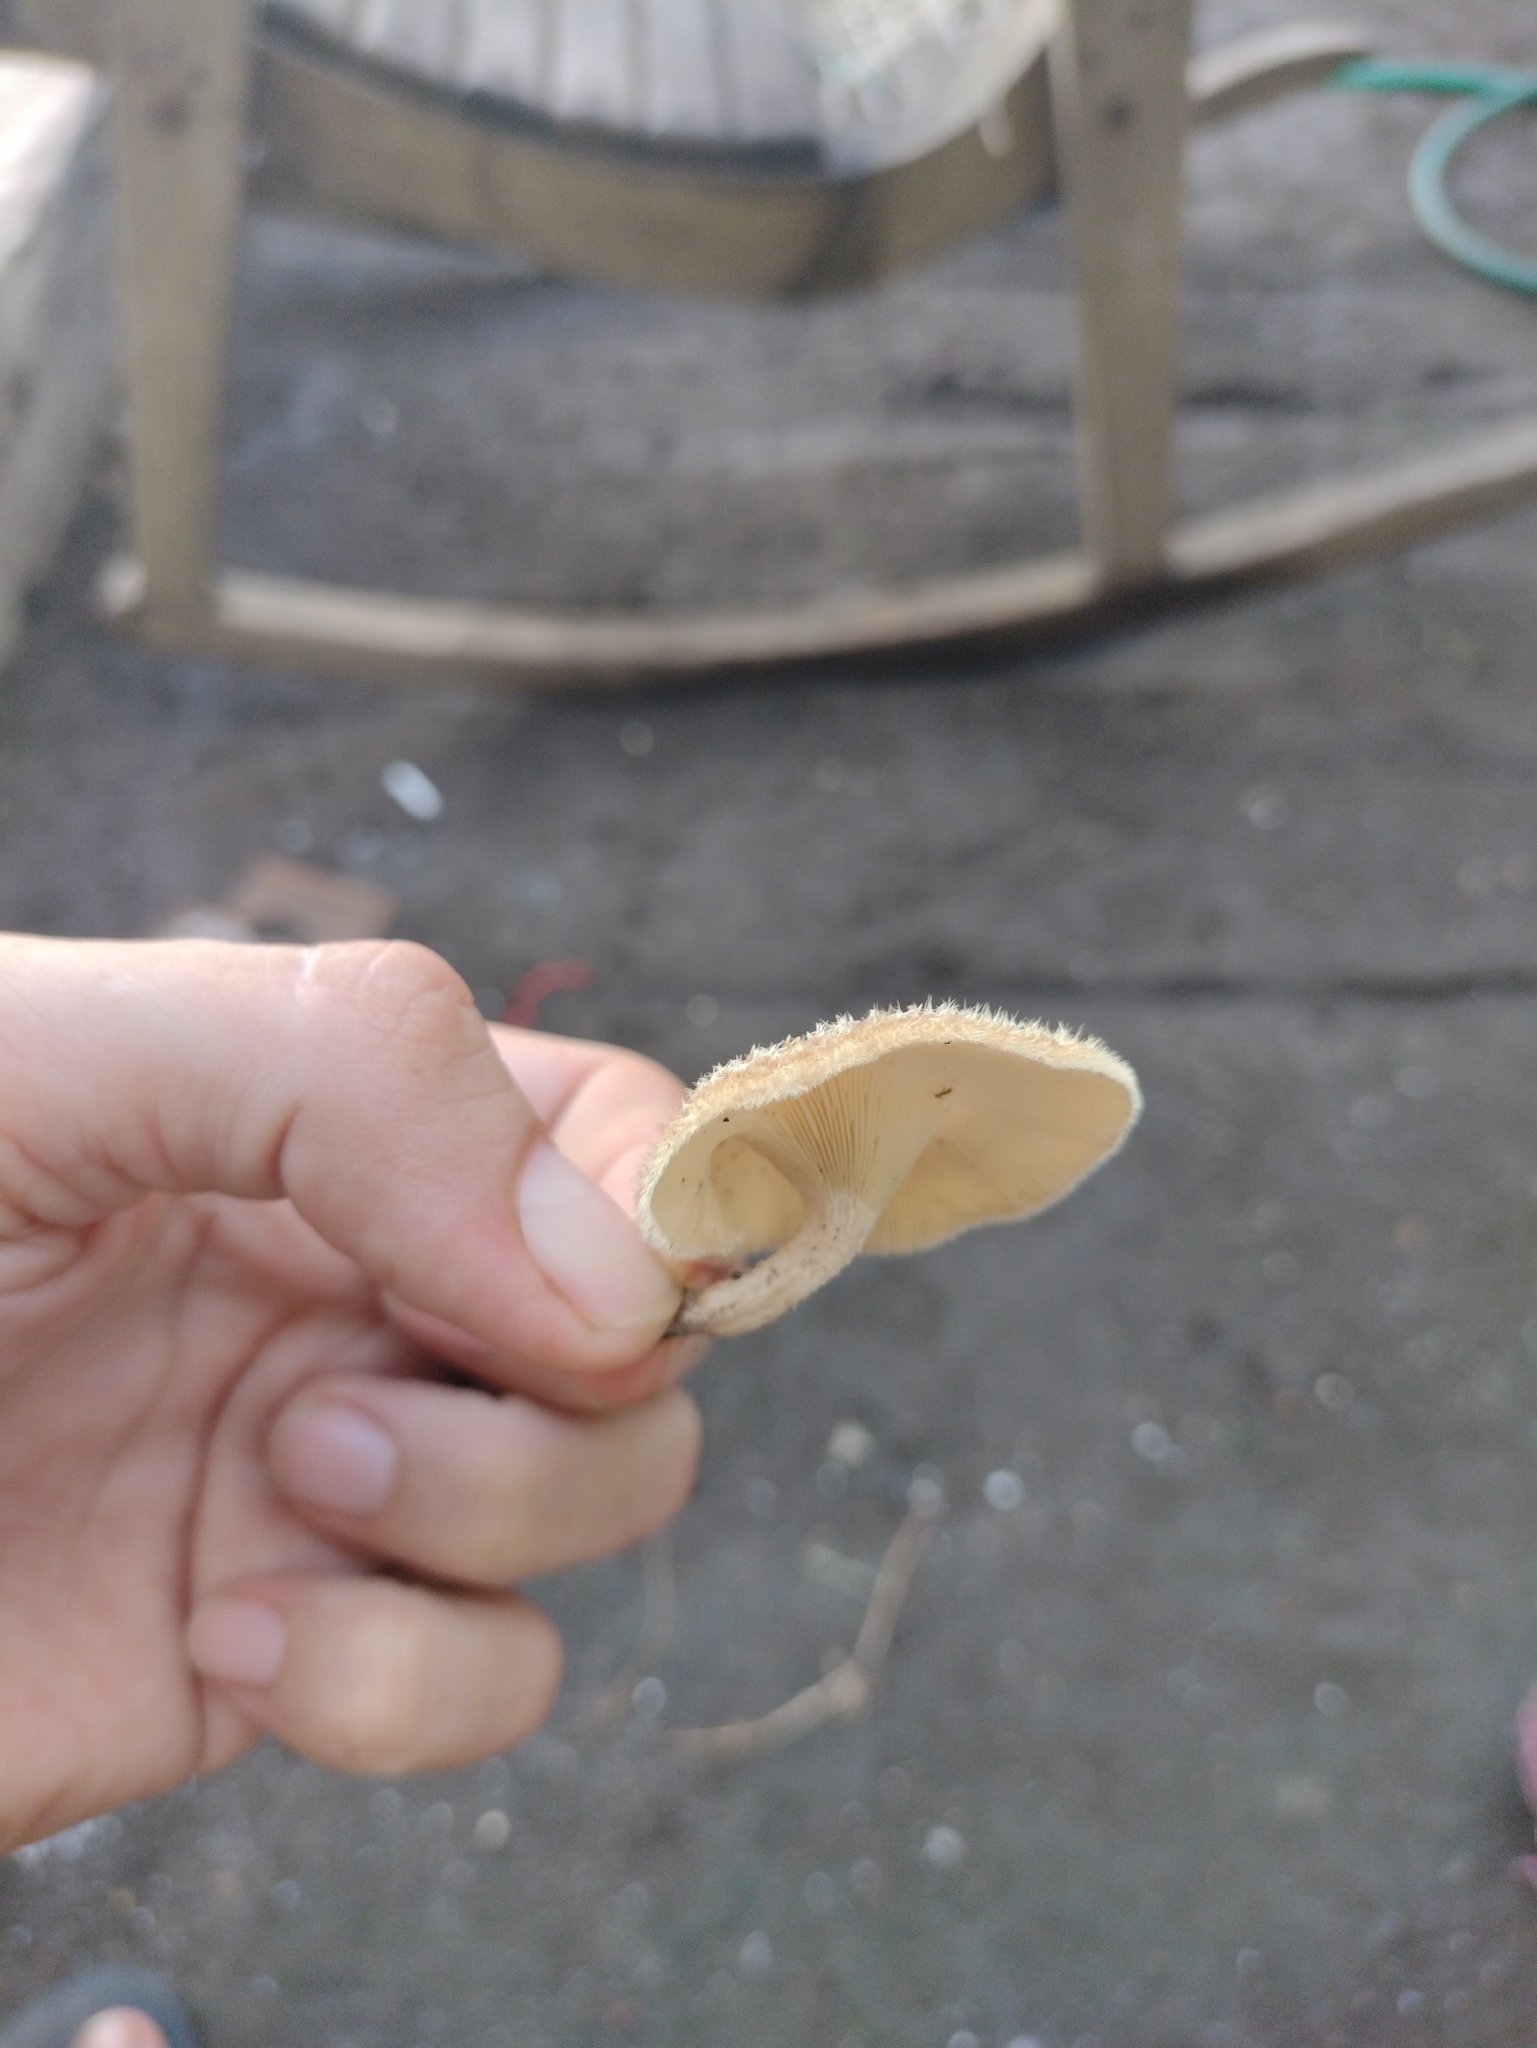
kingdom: Fungi
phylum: Basidiomycota
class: Agaricomycetes
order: Polyporales
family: Polyporaceae
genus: Lentinus
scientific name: Lentinus crinitus
